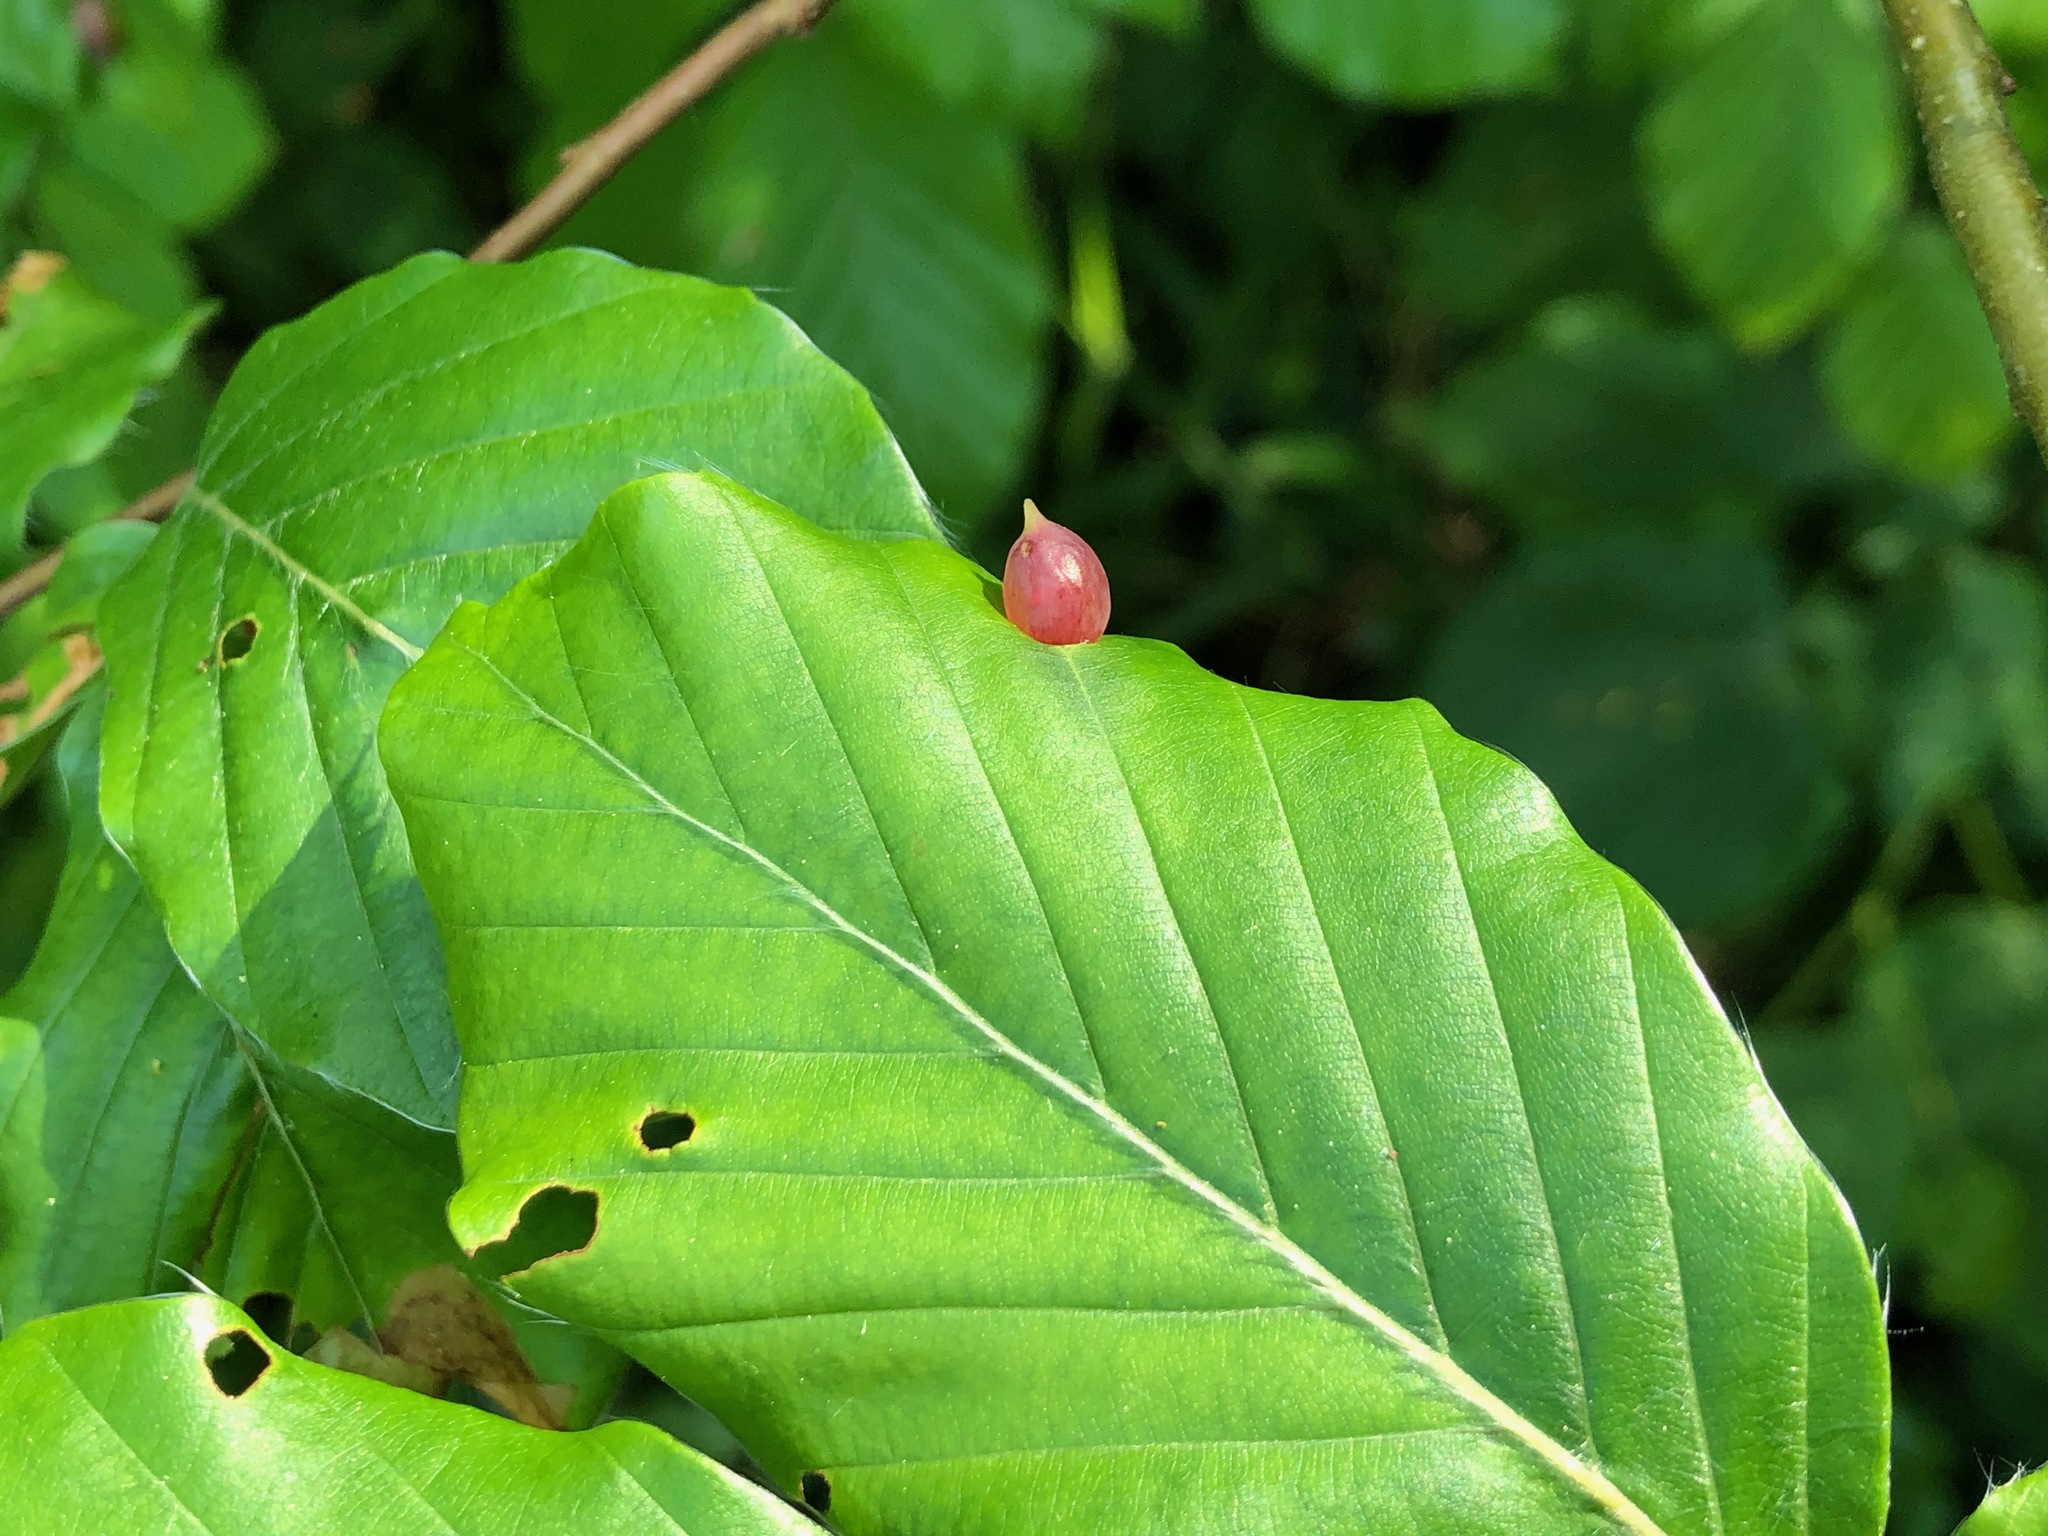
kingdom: Animalia
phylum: Arthropoda
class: Insecta
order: Diptera
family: Cecidomyiidae
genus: Mikiola
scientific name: Mikiola fagi
